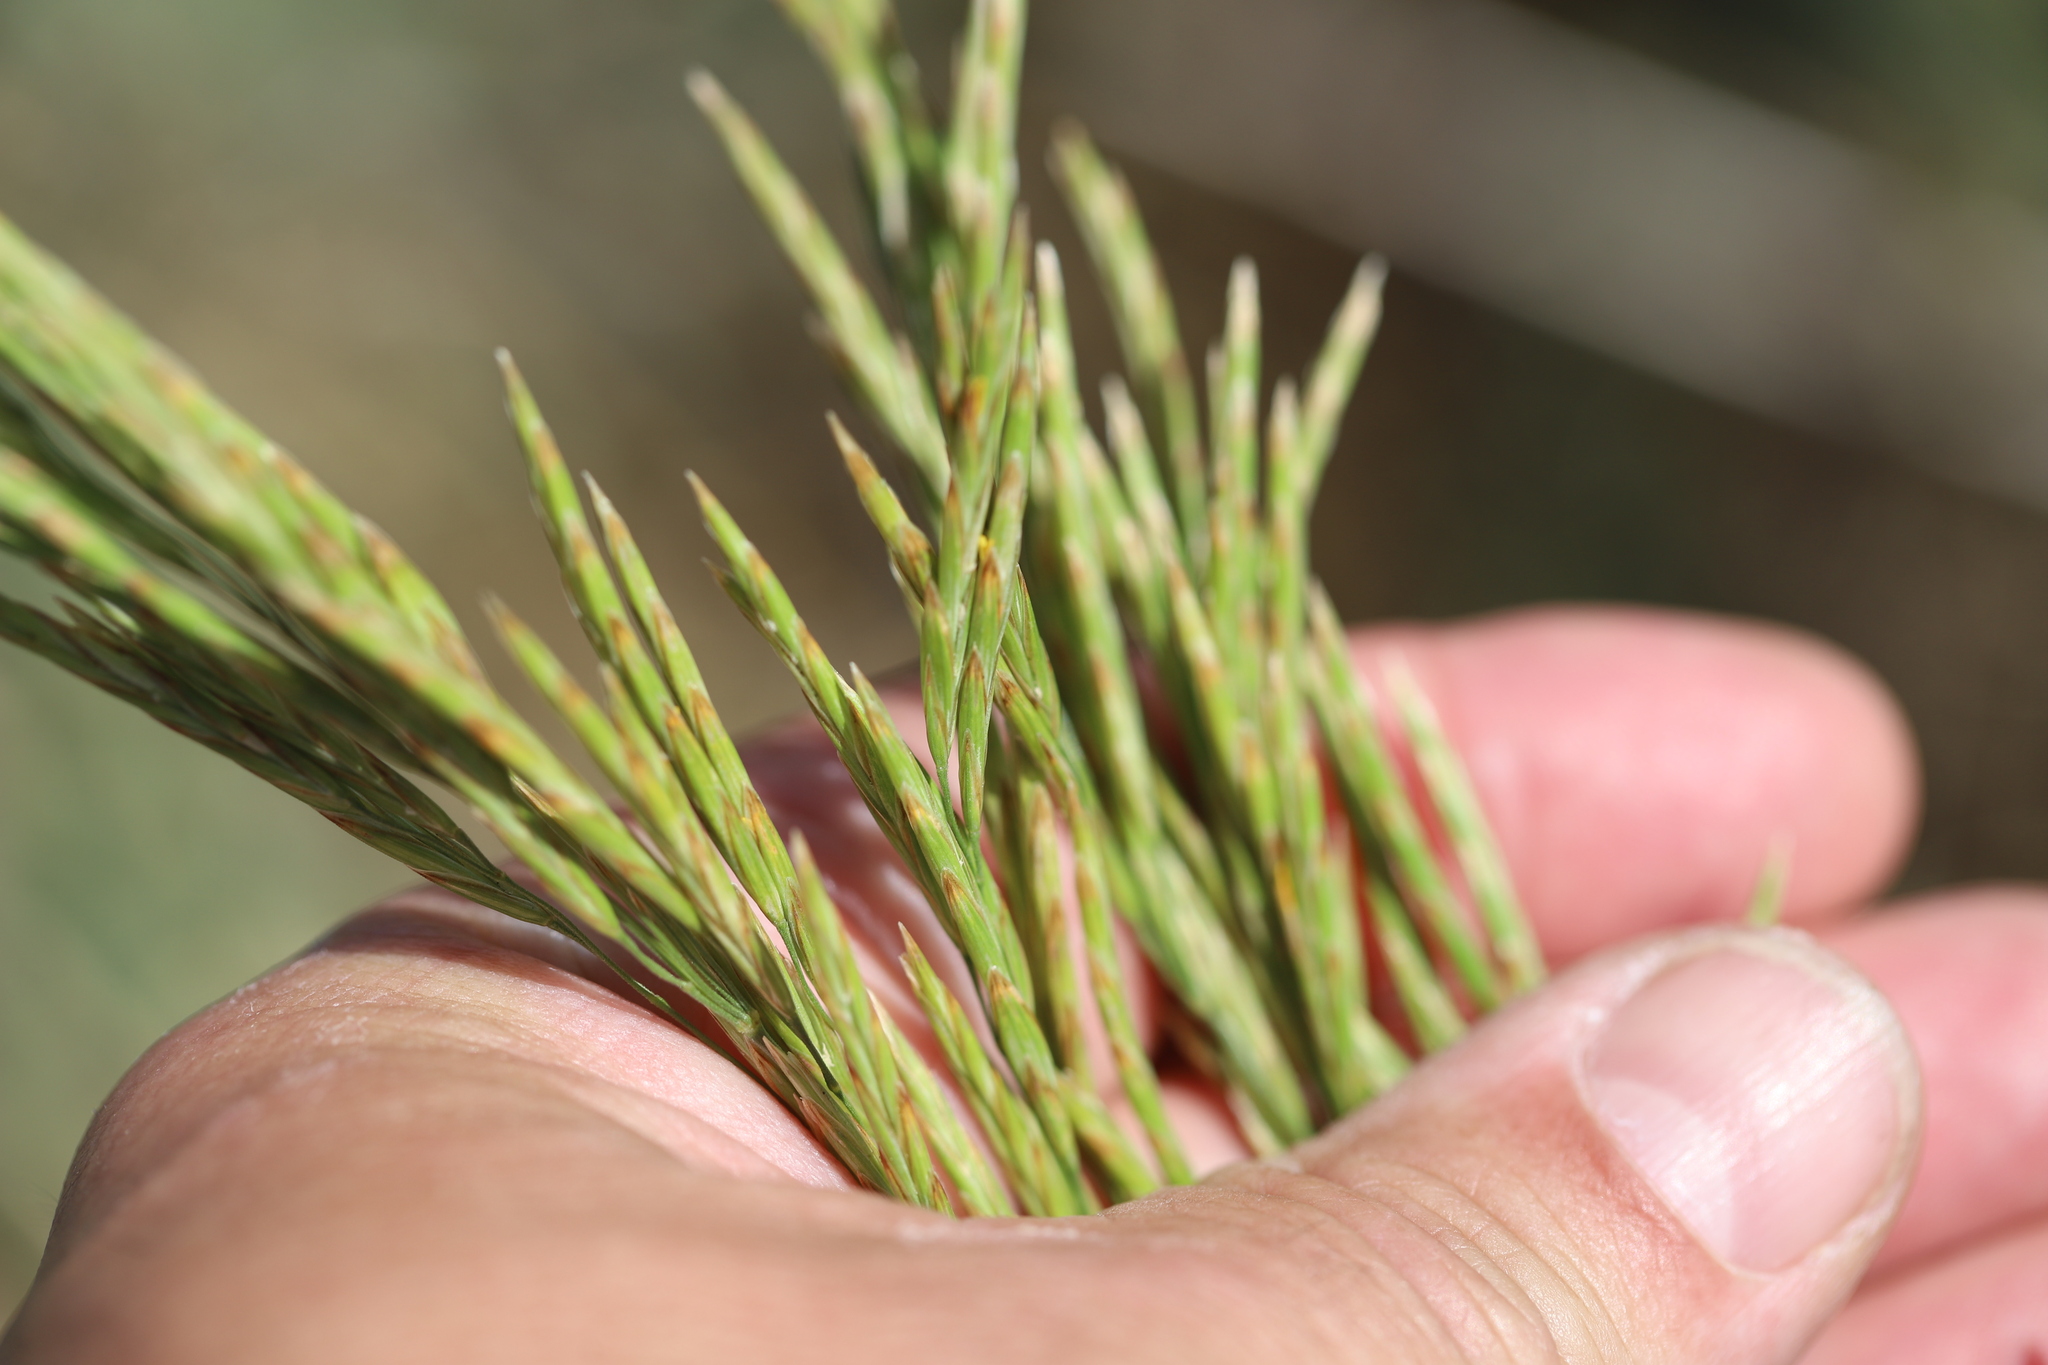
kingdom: Plantae
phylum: Tracheophyta
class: Liliopsida
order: Poales
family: Poaceae
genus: Bromus
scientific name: Bromus inermis
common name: Smooth brome
